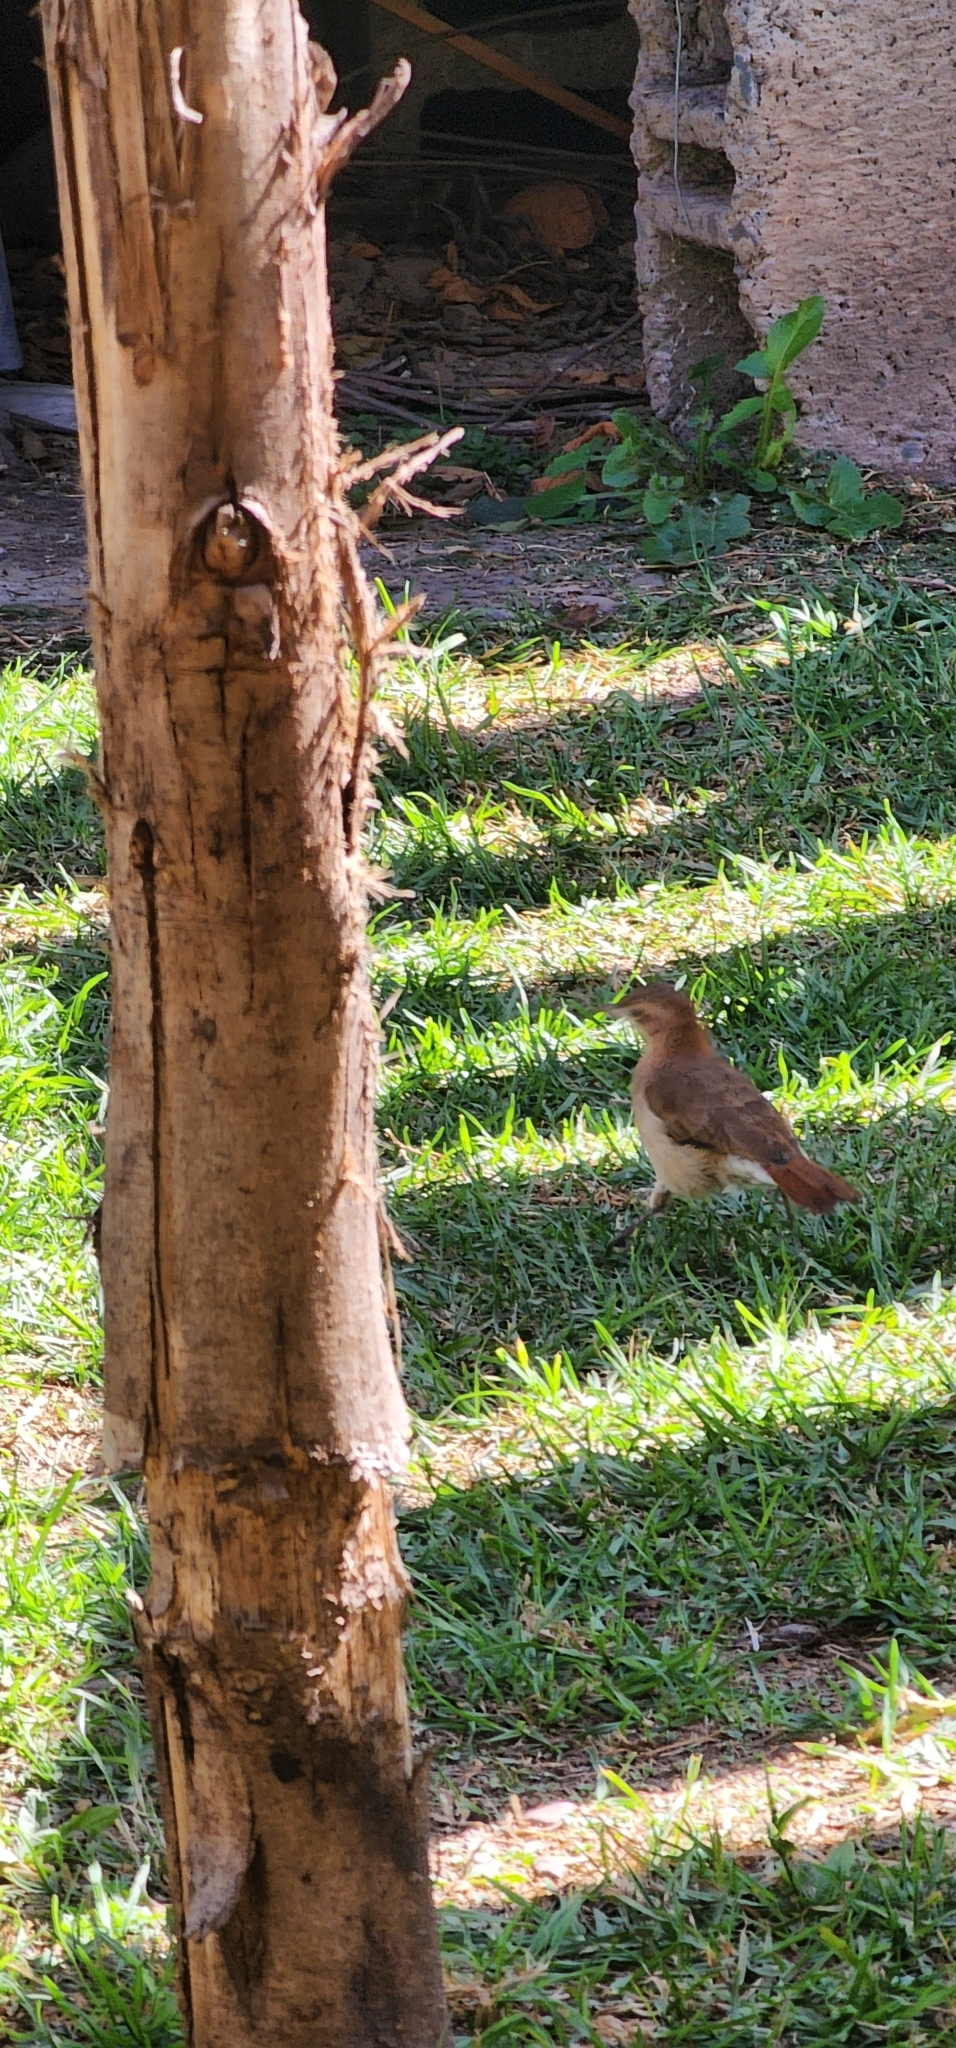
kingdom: Animalia
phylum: Chordata
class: Aves
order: Passeriformes
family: Furnariidae
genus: Furnarius
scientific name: Furnarius rufus
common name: Rufous hornero
